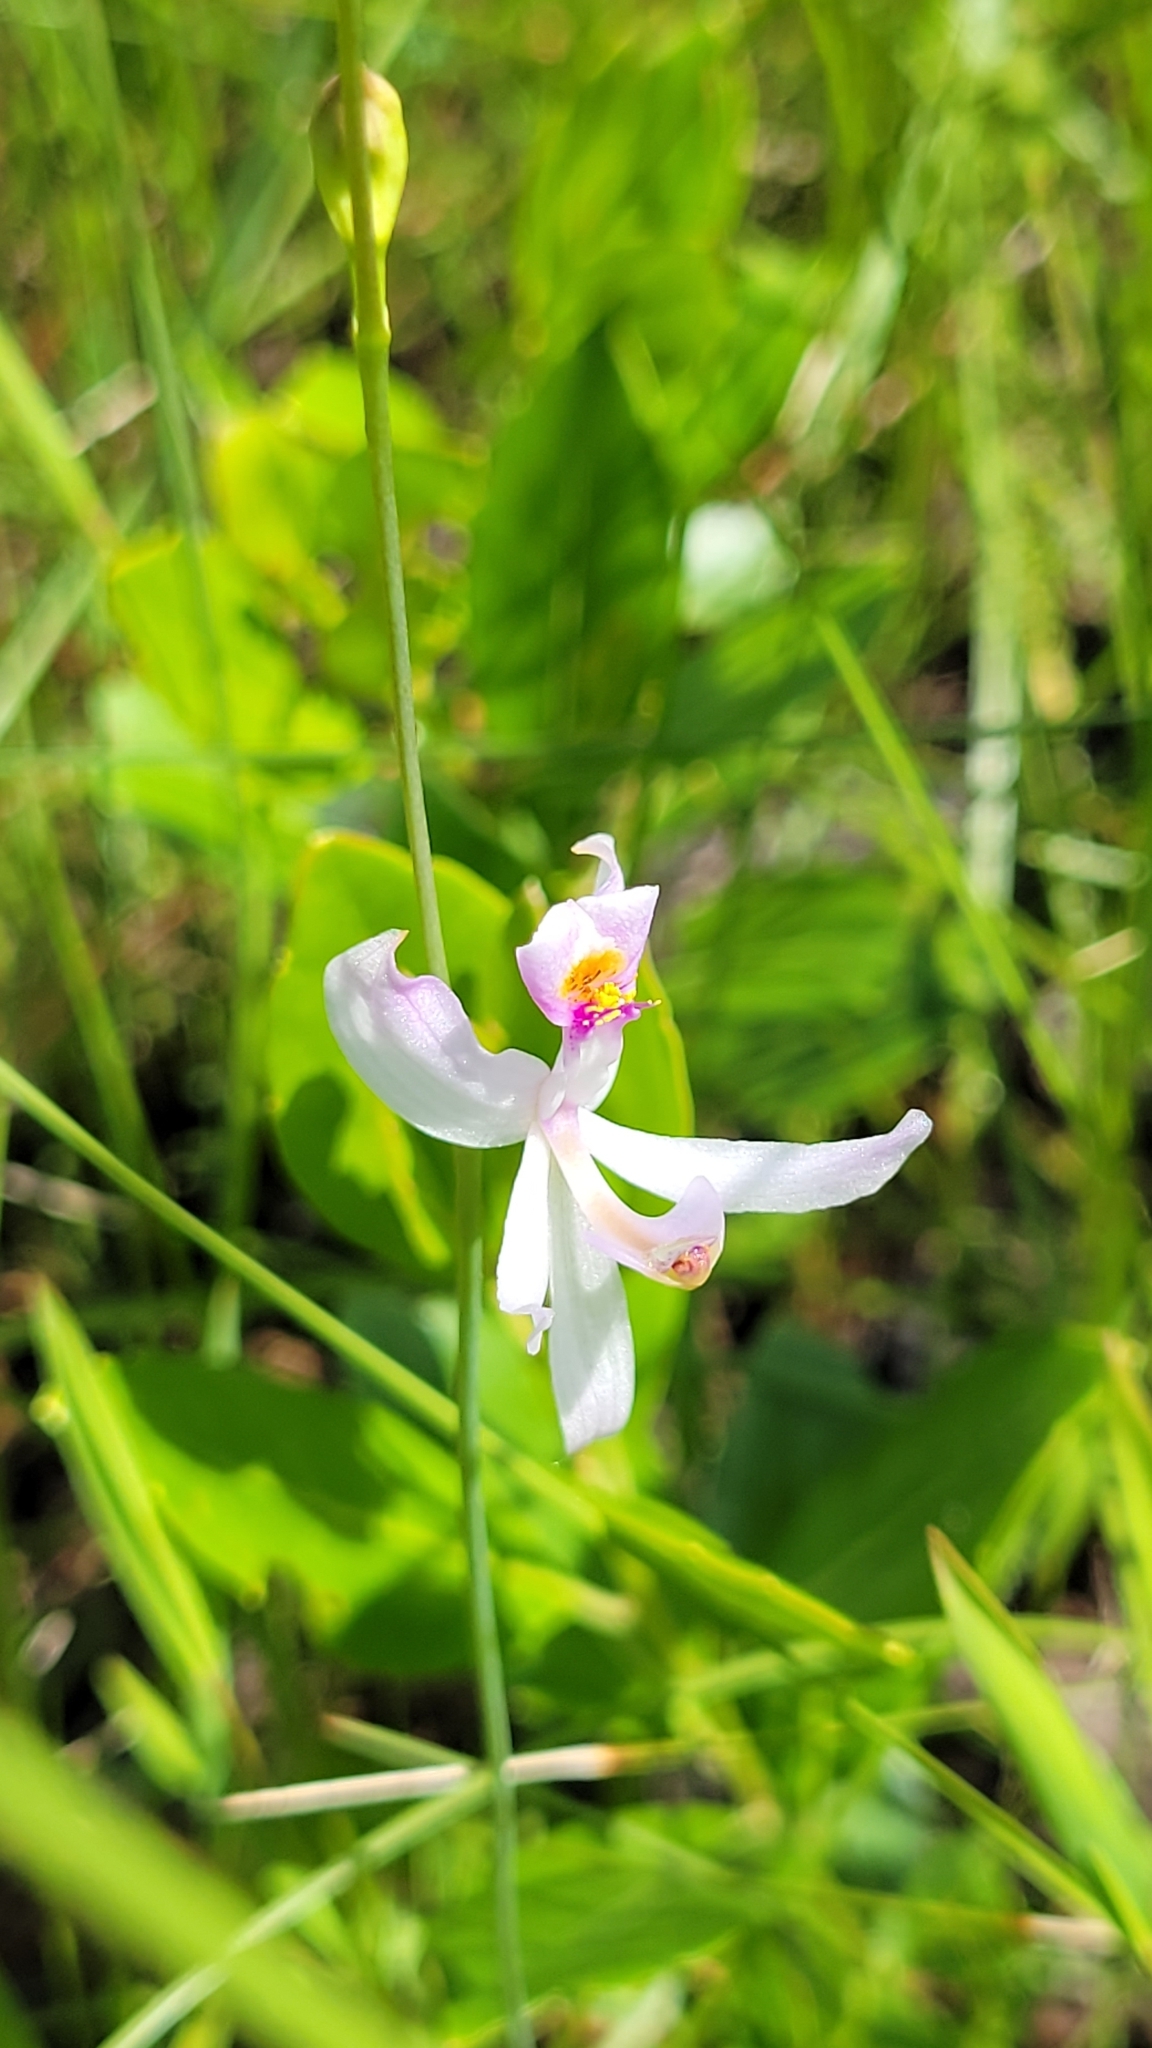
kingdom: Plantae
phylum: Tracheophyta
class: Liliopsida
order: Asparagales
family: Orchidaceae
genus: Calopogon
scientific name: Calopogon pallidus
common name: Pale grasspink
